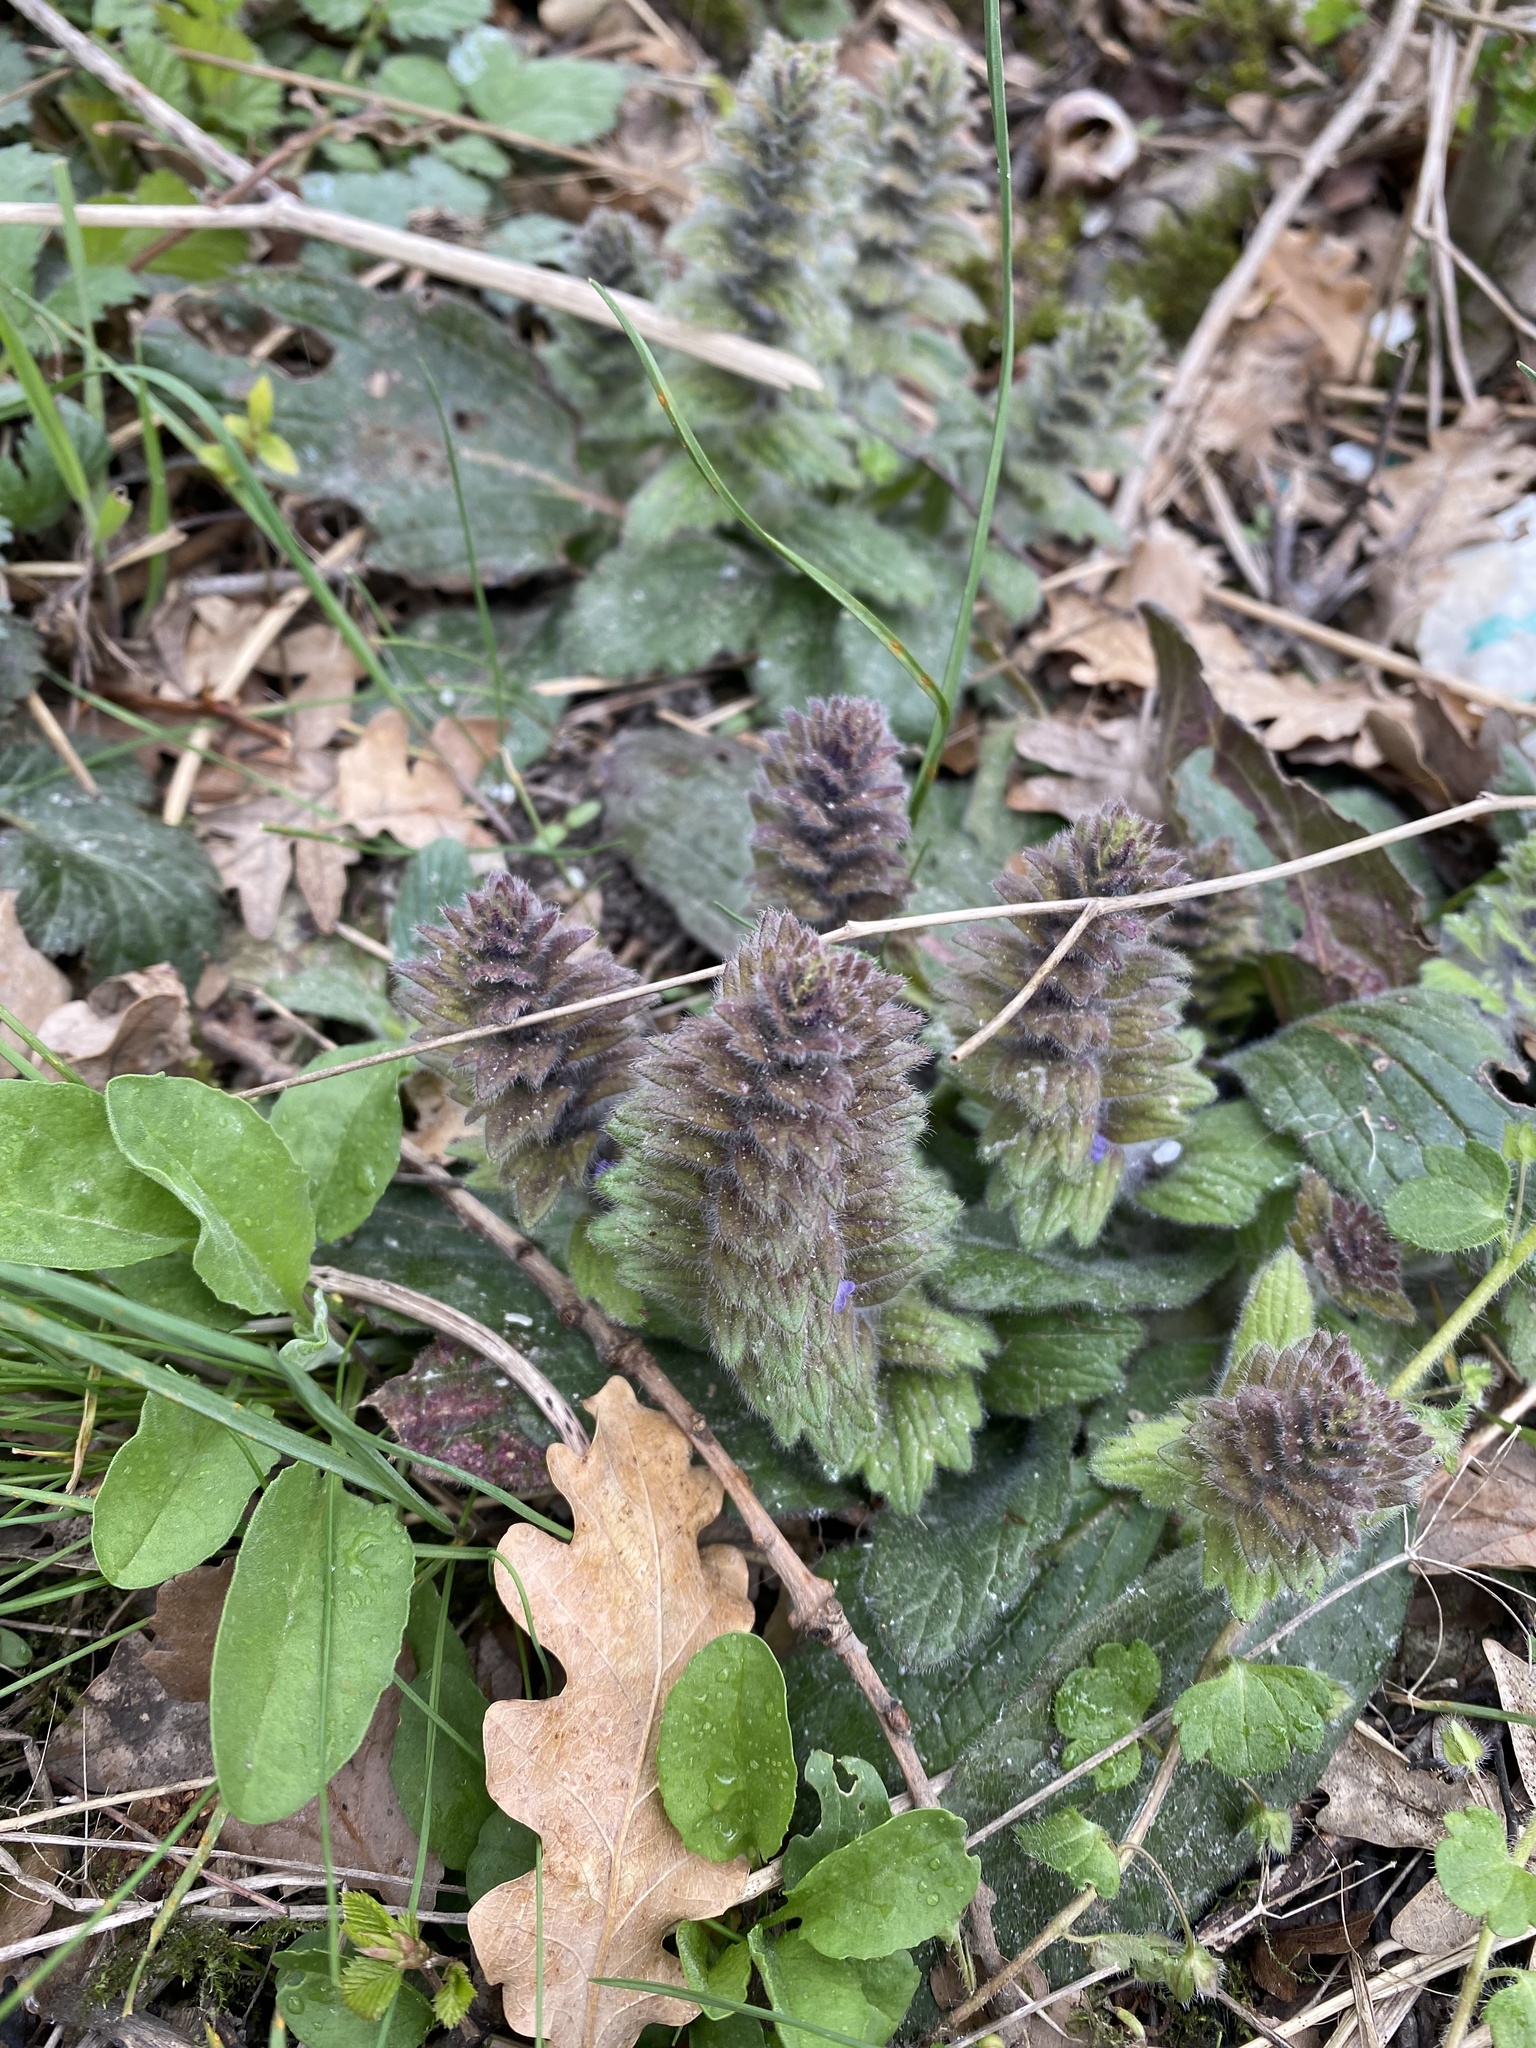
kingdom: Plantae
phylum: Tracheophyta
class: Magnoliopsida
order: Lamiales
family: Lamiaceae
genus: Ajuga
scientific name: Ajuga orientalis
